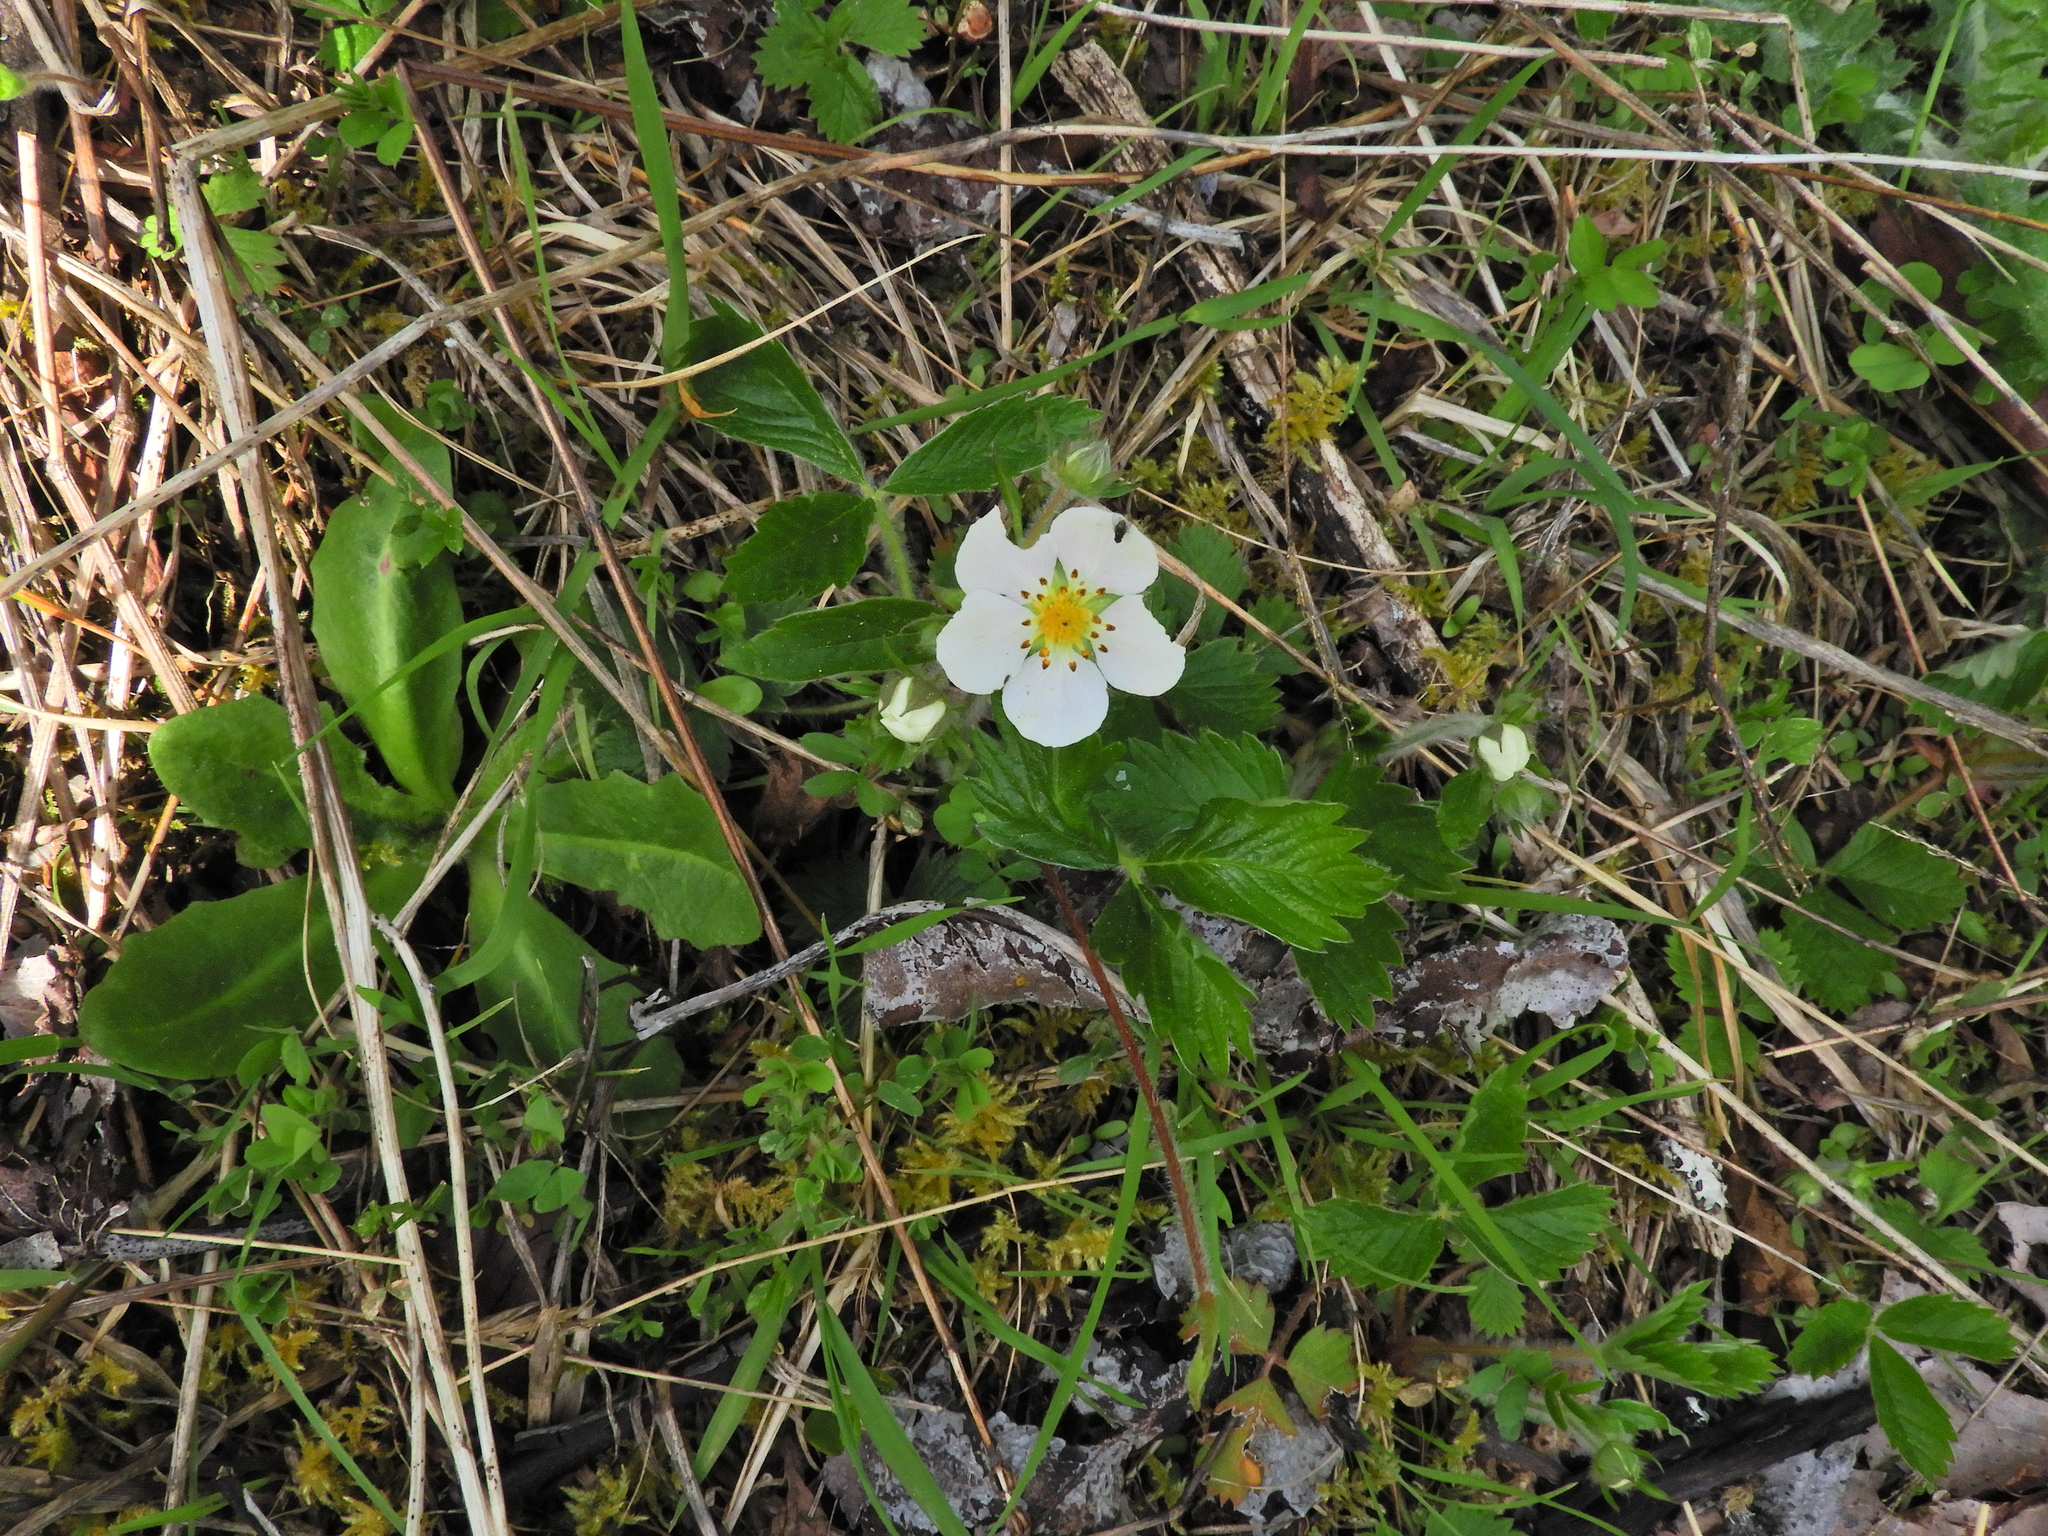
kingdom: Plantae
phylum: Tracheophyta
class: Magnoliopsida
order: Rosales
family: Rosaceae
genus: Fragaria
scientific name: Fragaria virginiana
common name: Thickleaved wild strawberry
